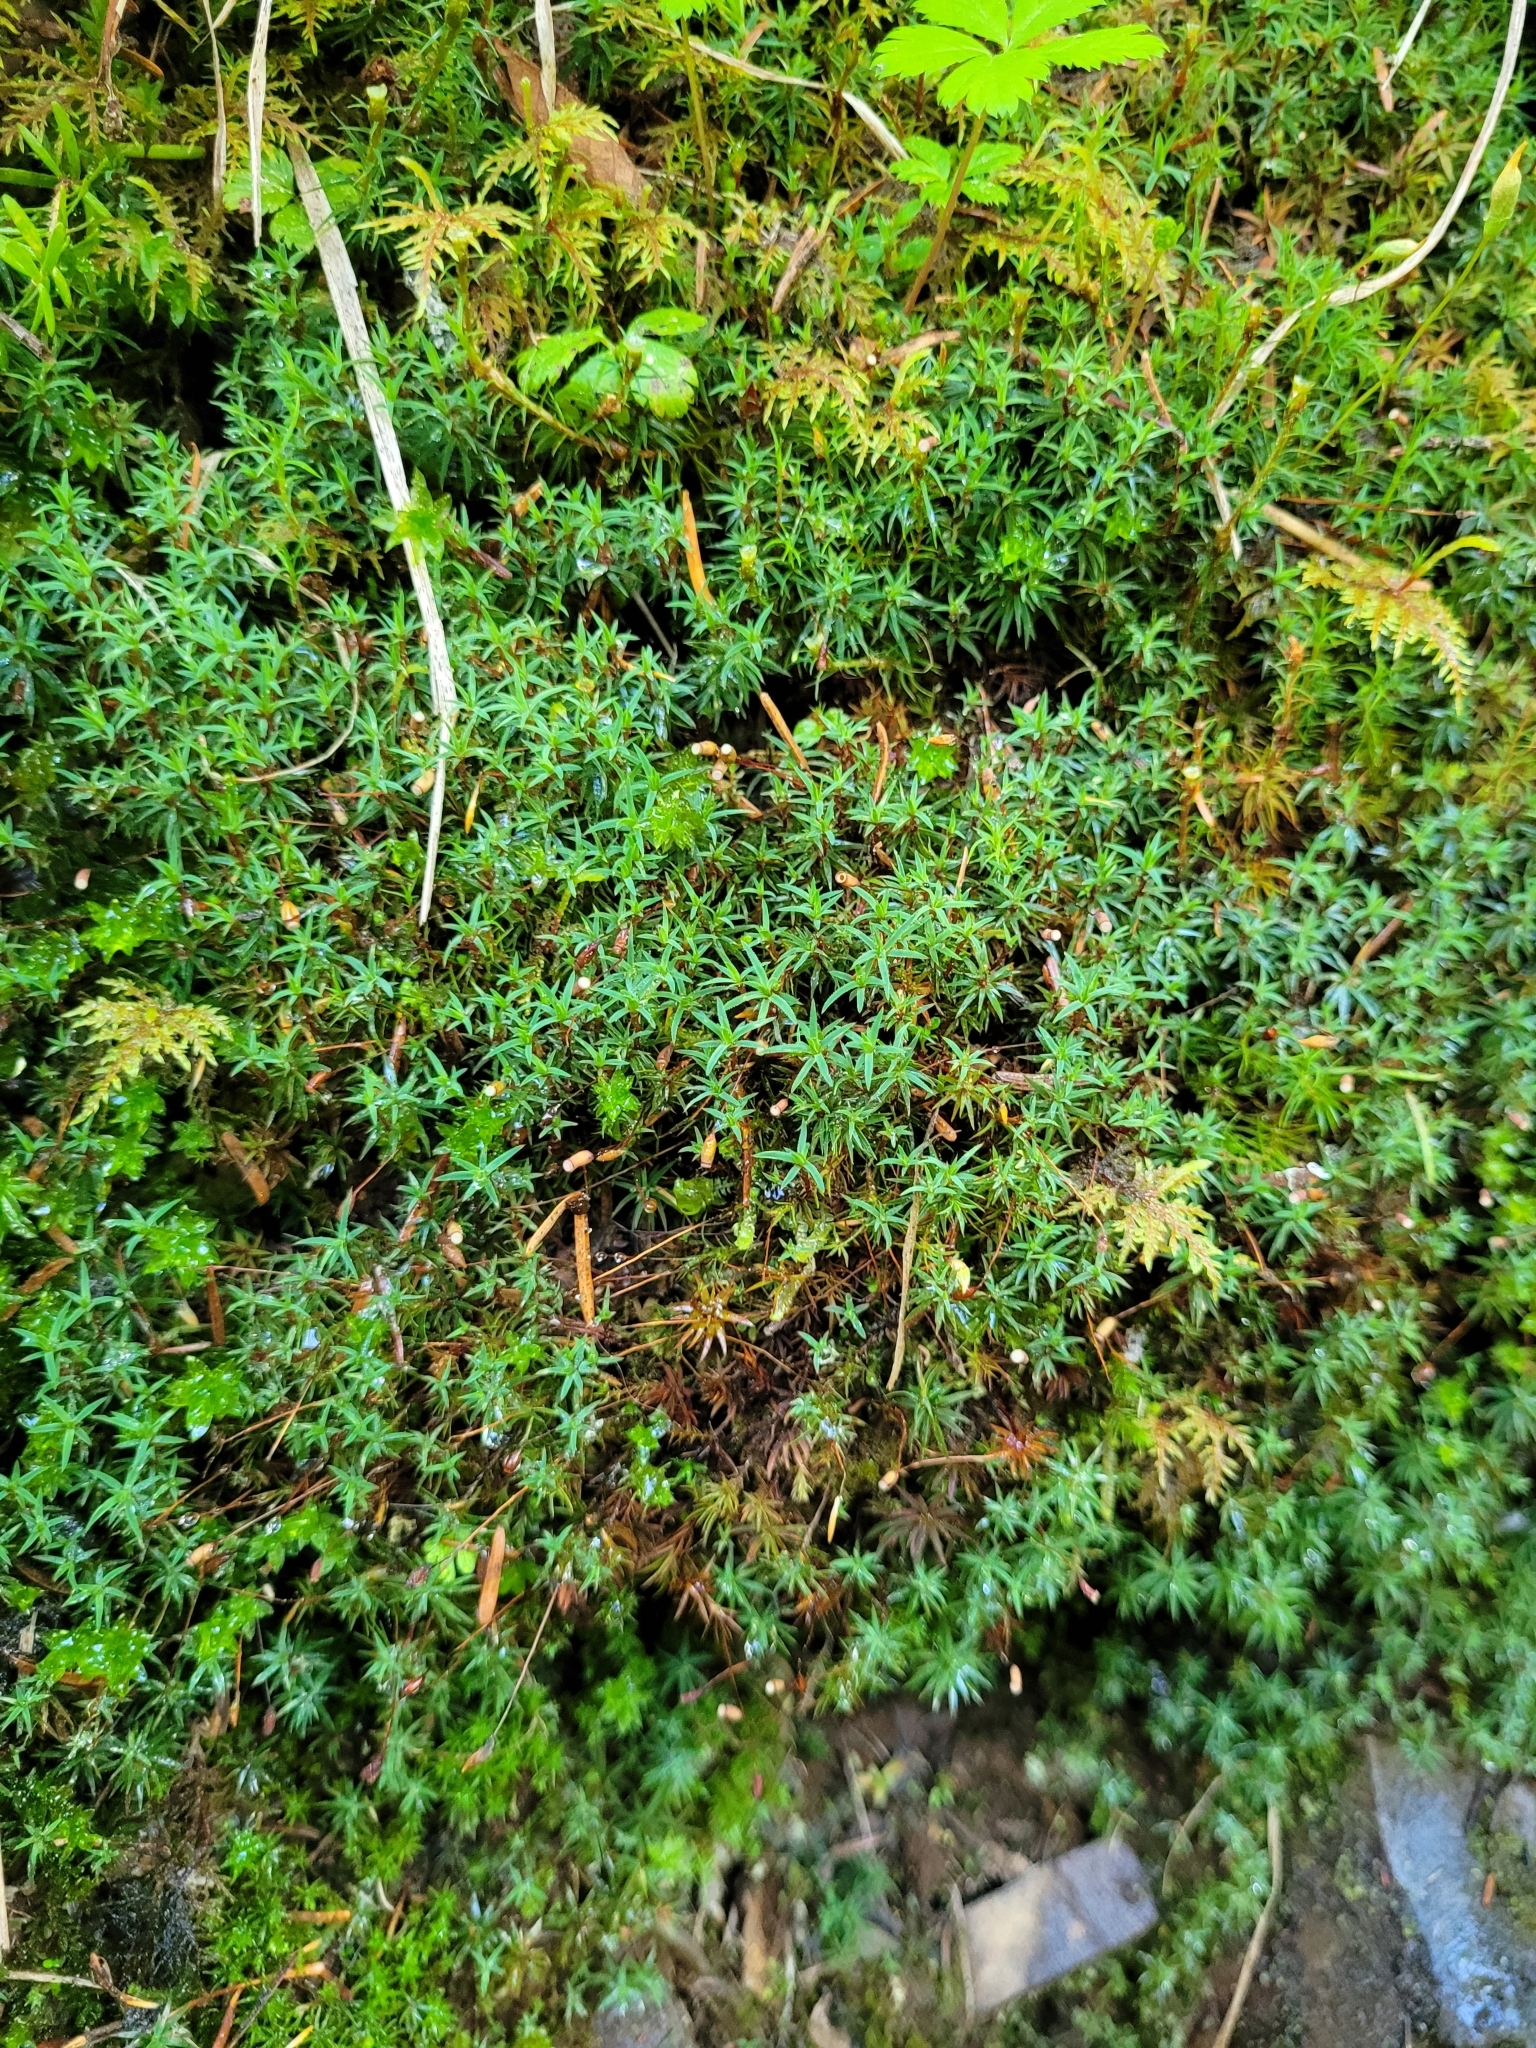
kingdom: Plantae
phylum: Bryophyta
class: Polytrichopsida
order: Polytrichales
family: Polytrichaceae
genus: Polytrichum
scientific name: Polytrichum juniperinum
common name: Juniper haircap moss
